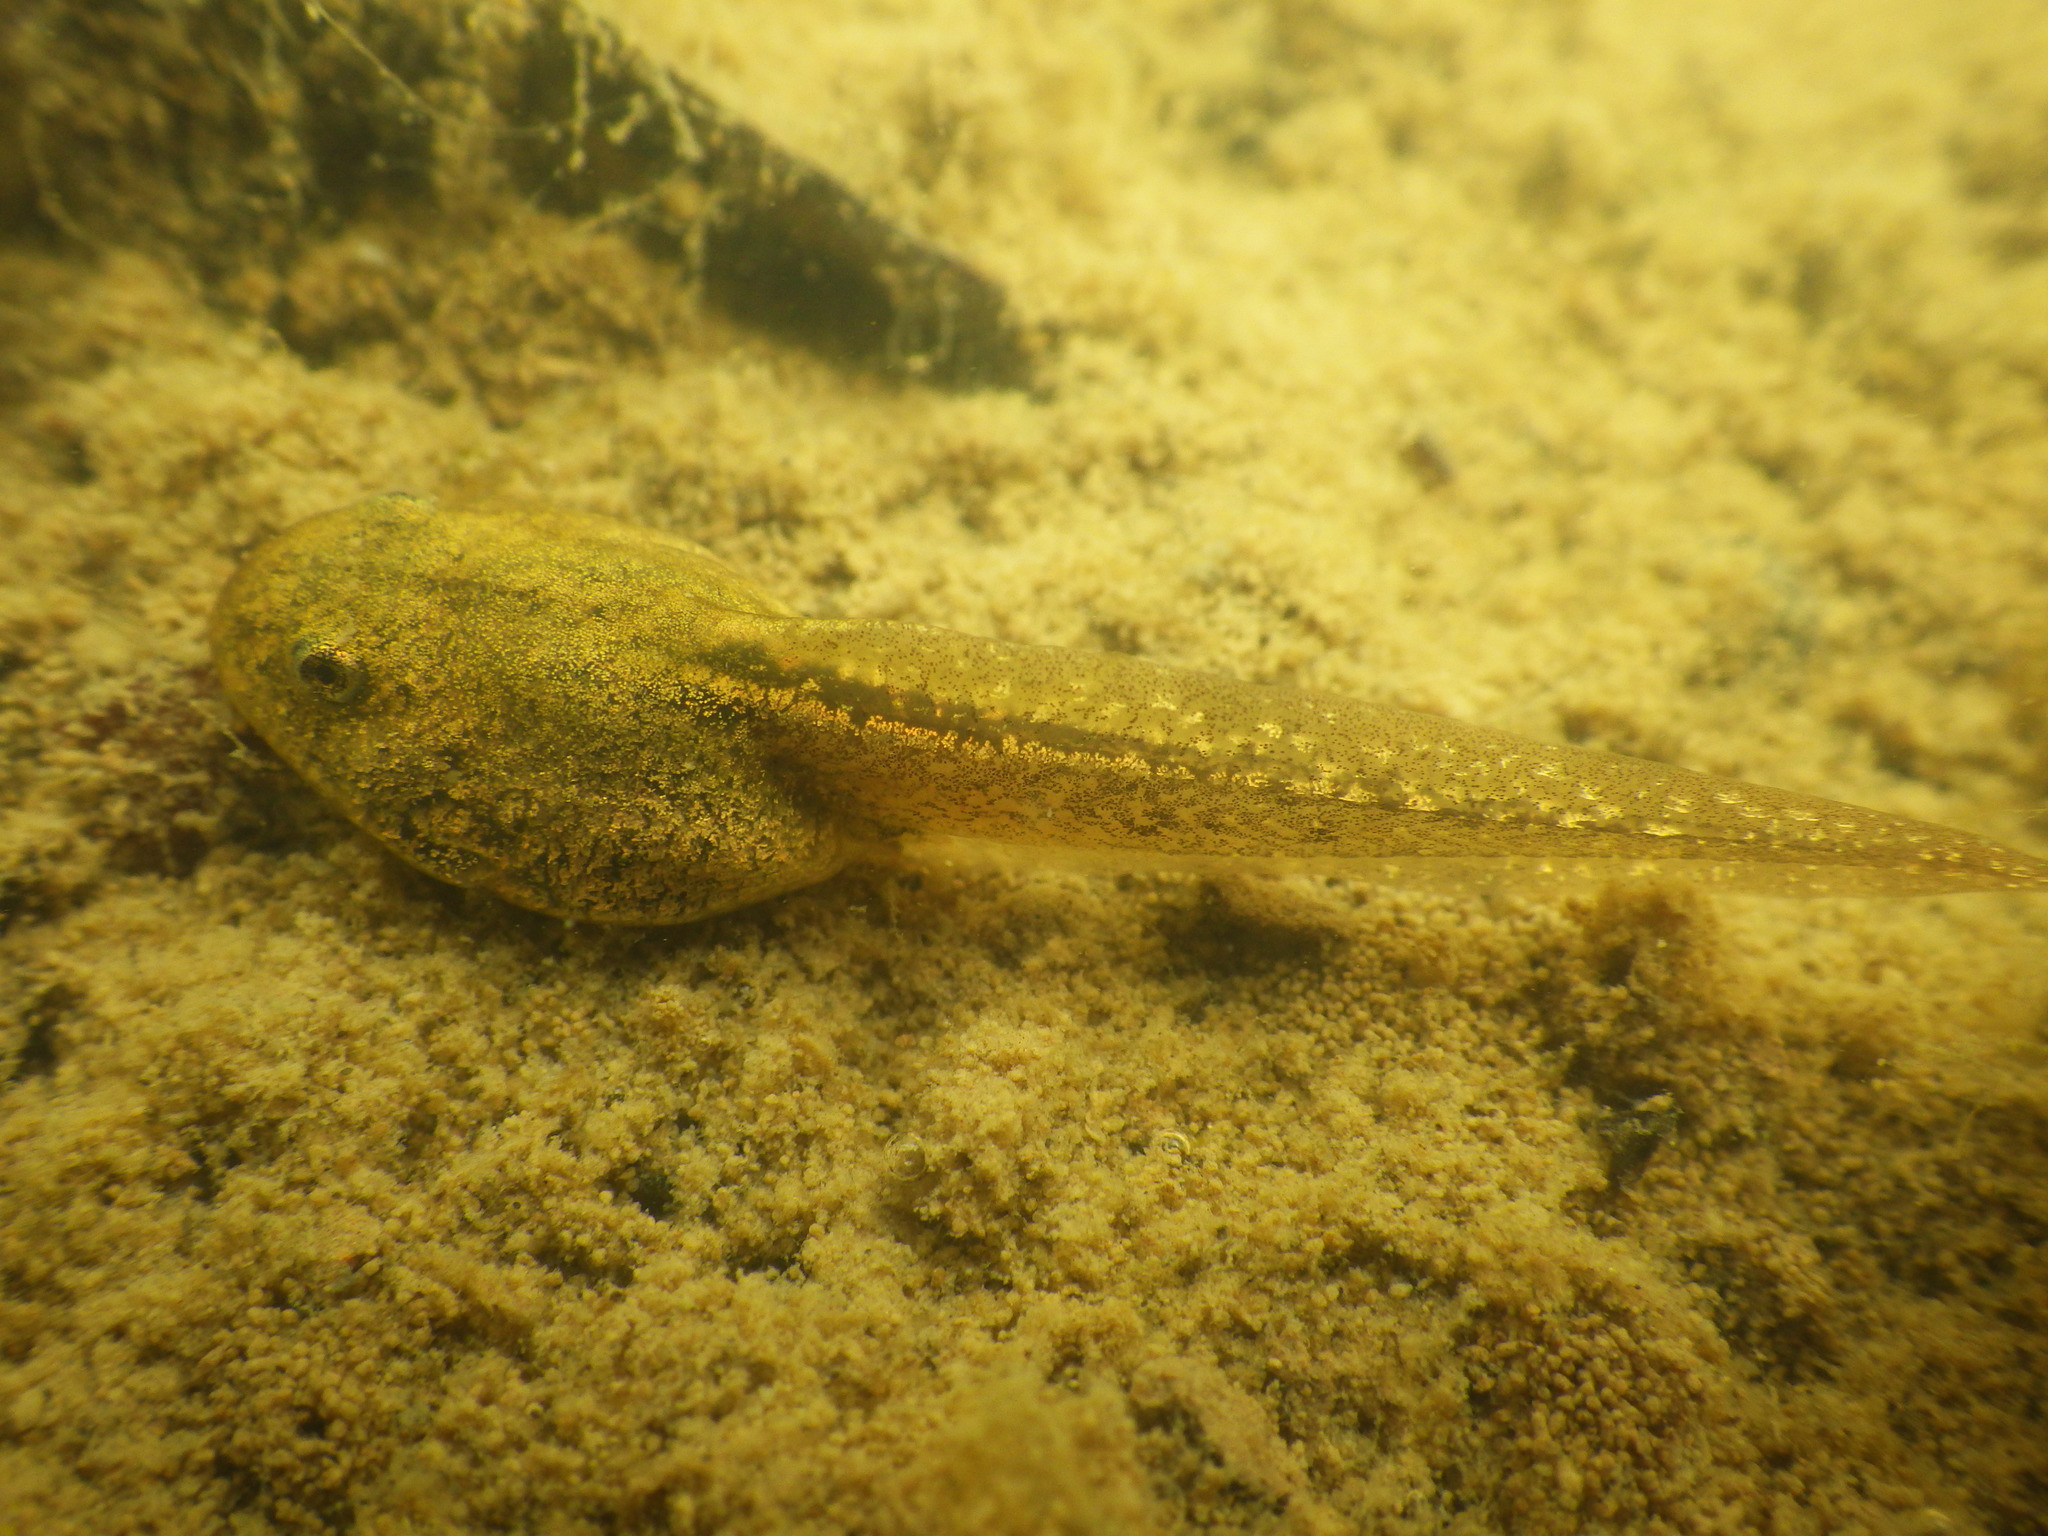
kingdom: Animalia
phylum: Chordata
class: Amphibia
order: Anura
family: Ranidae
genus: Rana
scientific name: Rana temporaria
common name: Common frog
